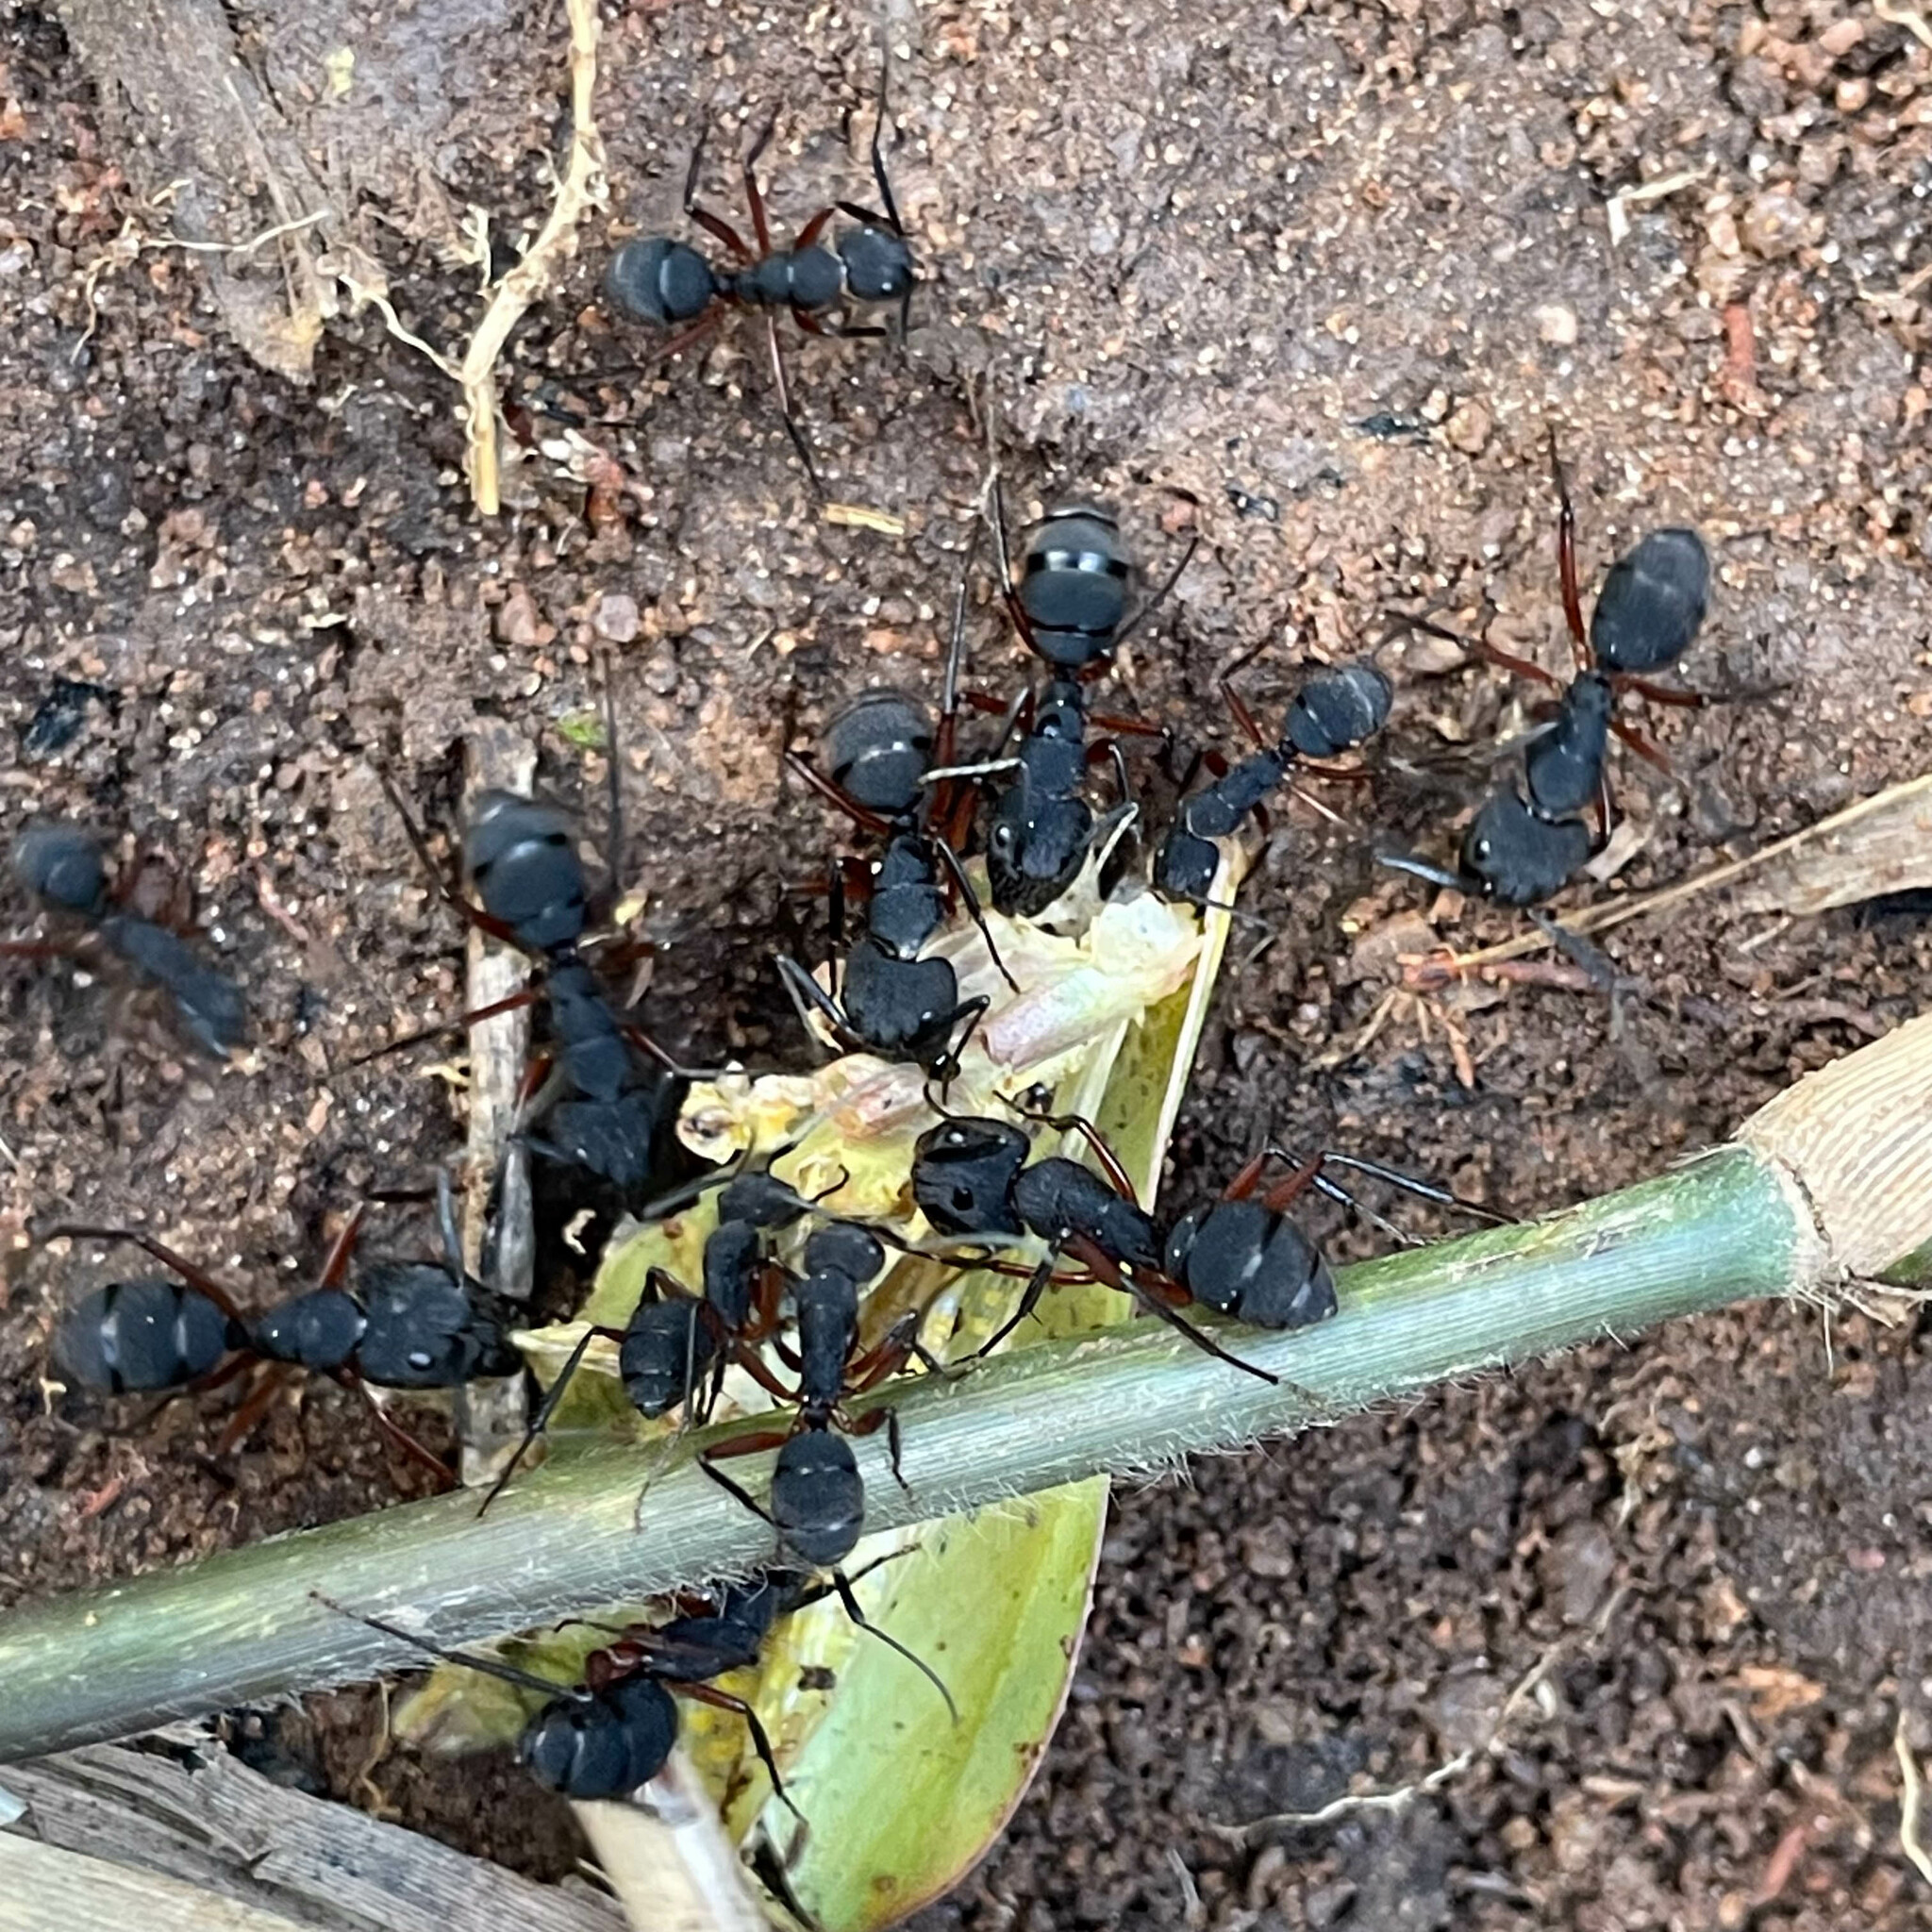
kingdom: Animalia
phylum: Arthropoda
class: Insecta
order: Hymenoptera
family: Formicidae
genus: Camponotus
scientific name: Camponotus rufipes
